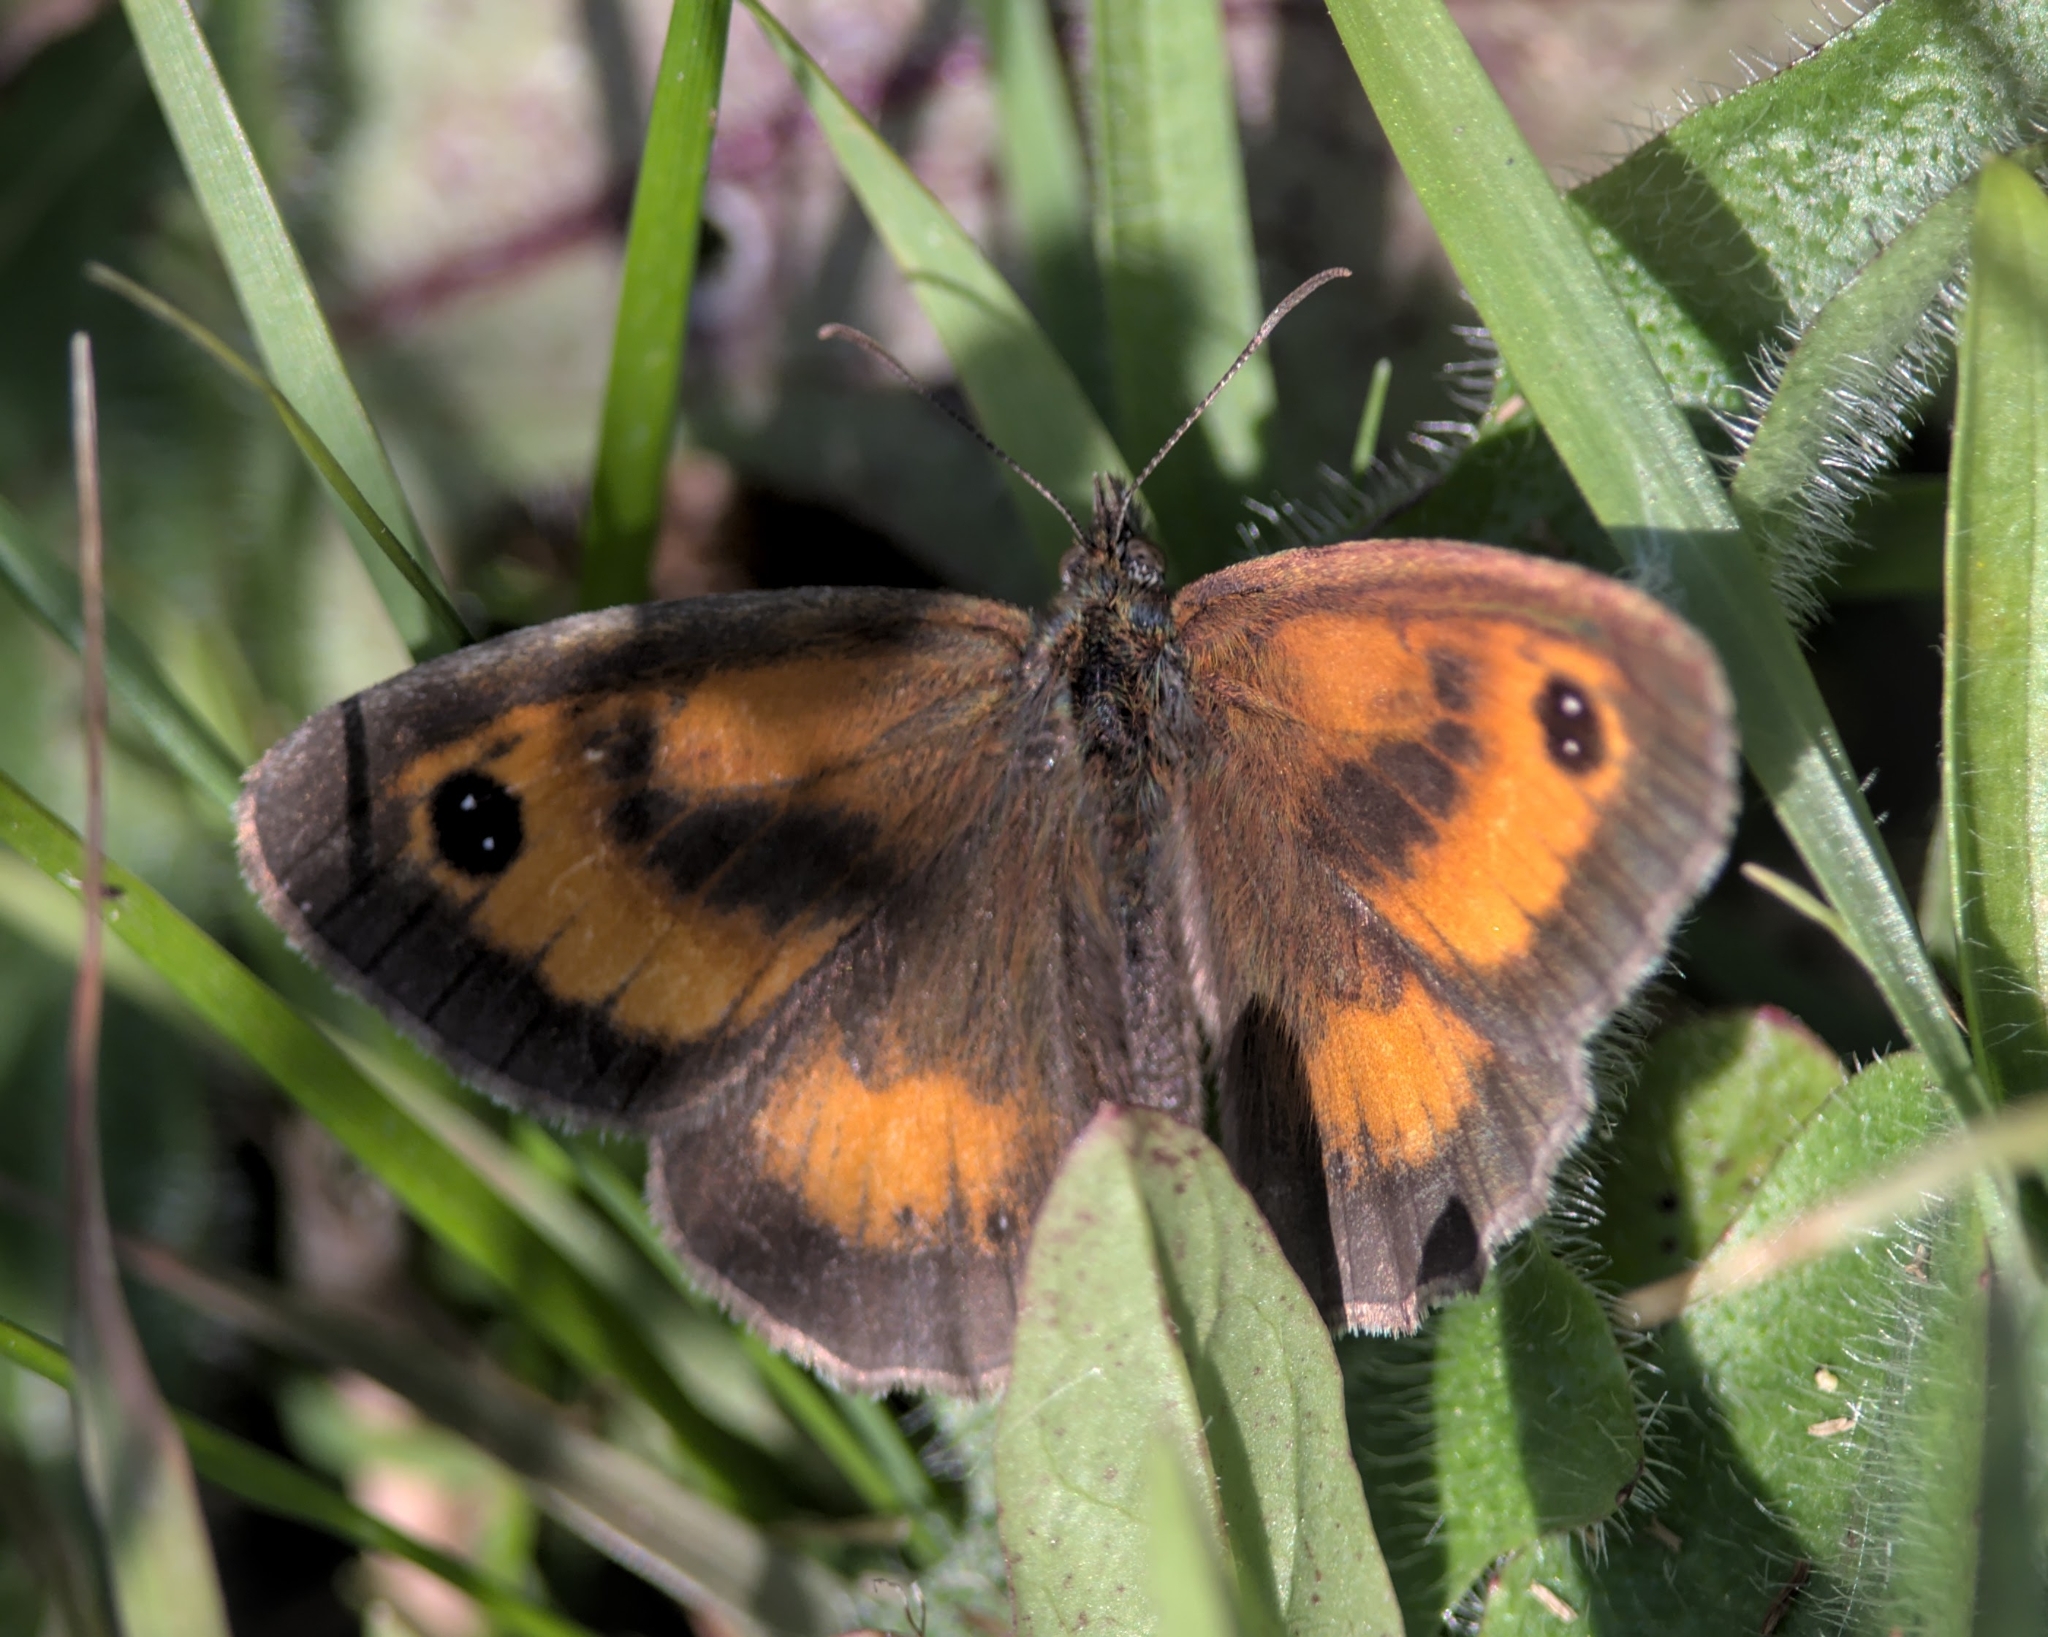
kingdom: Animalia
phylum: Arthropoda
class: Insecta
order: Lepidoptera
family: Nymphalidae
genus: Pyronia
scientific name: Pyronia tithonus
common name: Gatekeeper
